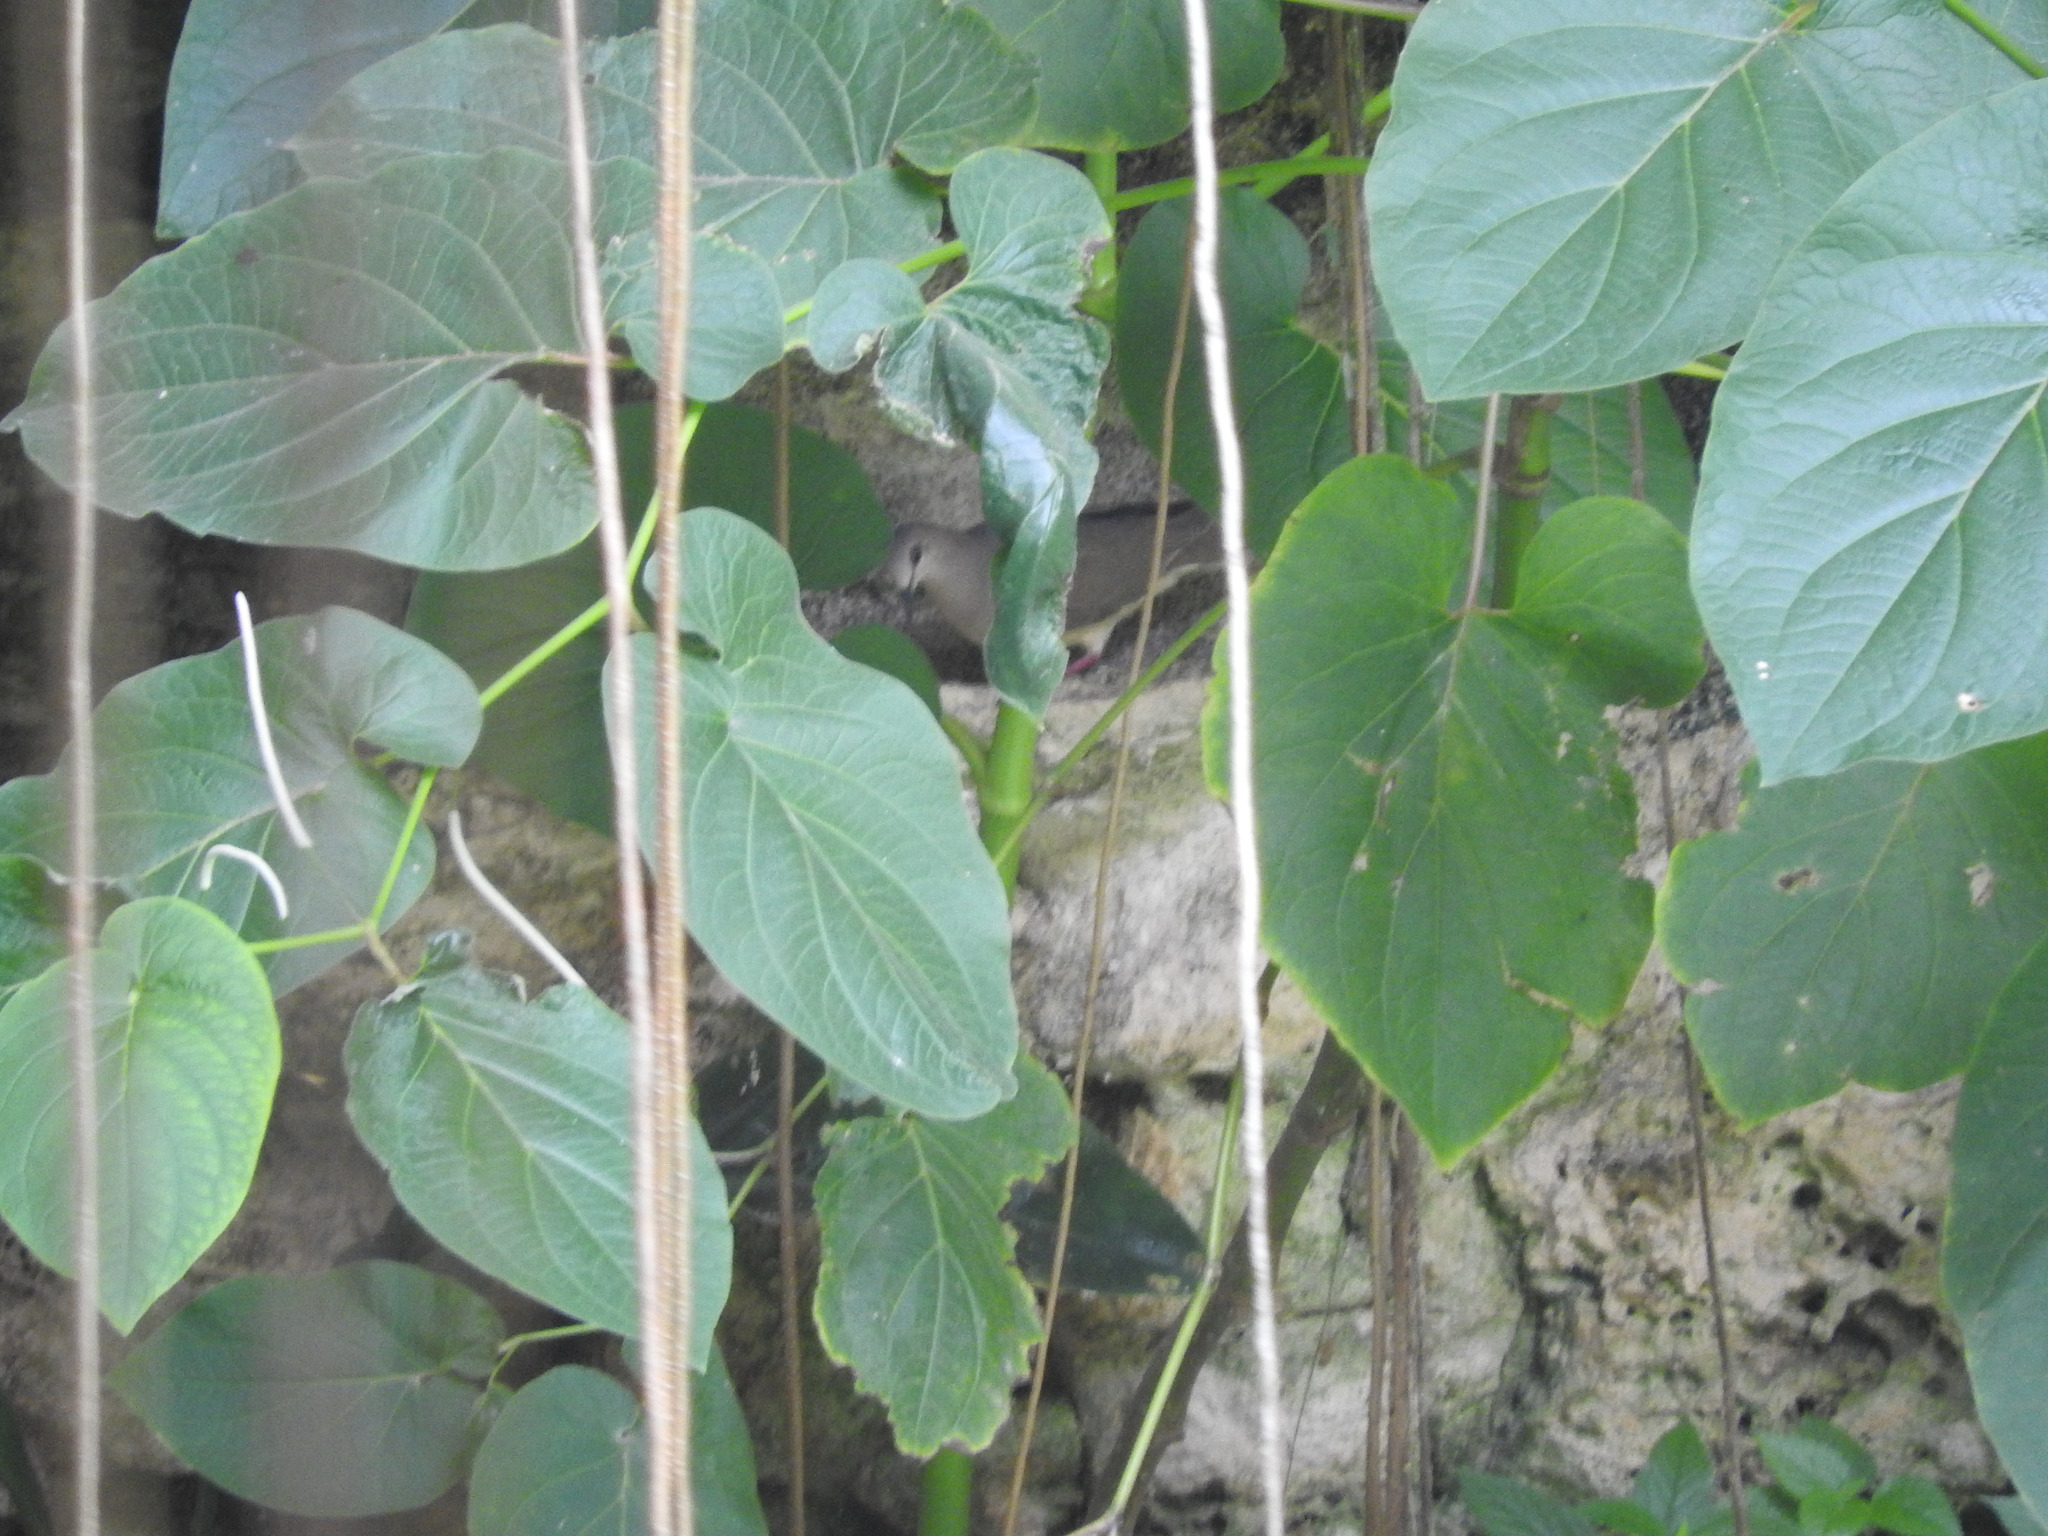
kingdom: Animalia
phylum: Chordata
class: Aves
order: Columbiformes
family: Columbidae
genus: Leptotila
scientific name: Leptotila verreauxi
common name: White-tipped dove
